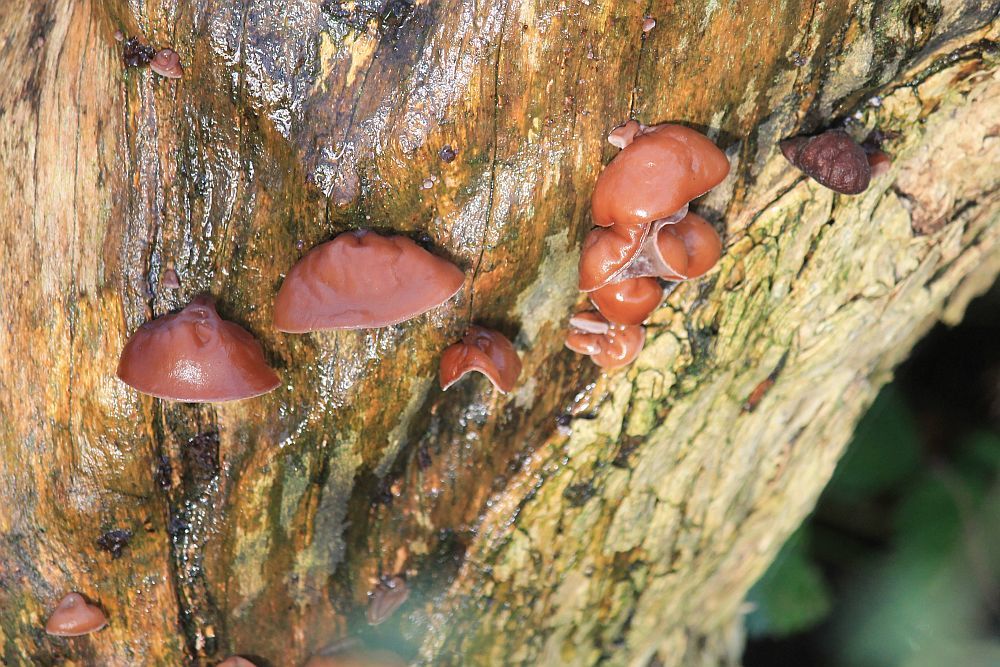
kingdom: Fungi
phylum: Basidiomycota
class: Agaricomycetes
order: Auriculariales
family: Auriculariaceae
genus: Auricularia
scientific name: Auricularia auricula-judae
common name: Jelly ear
